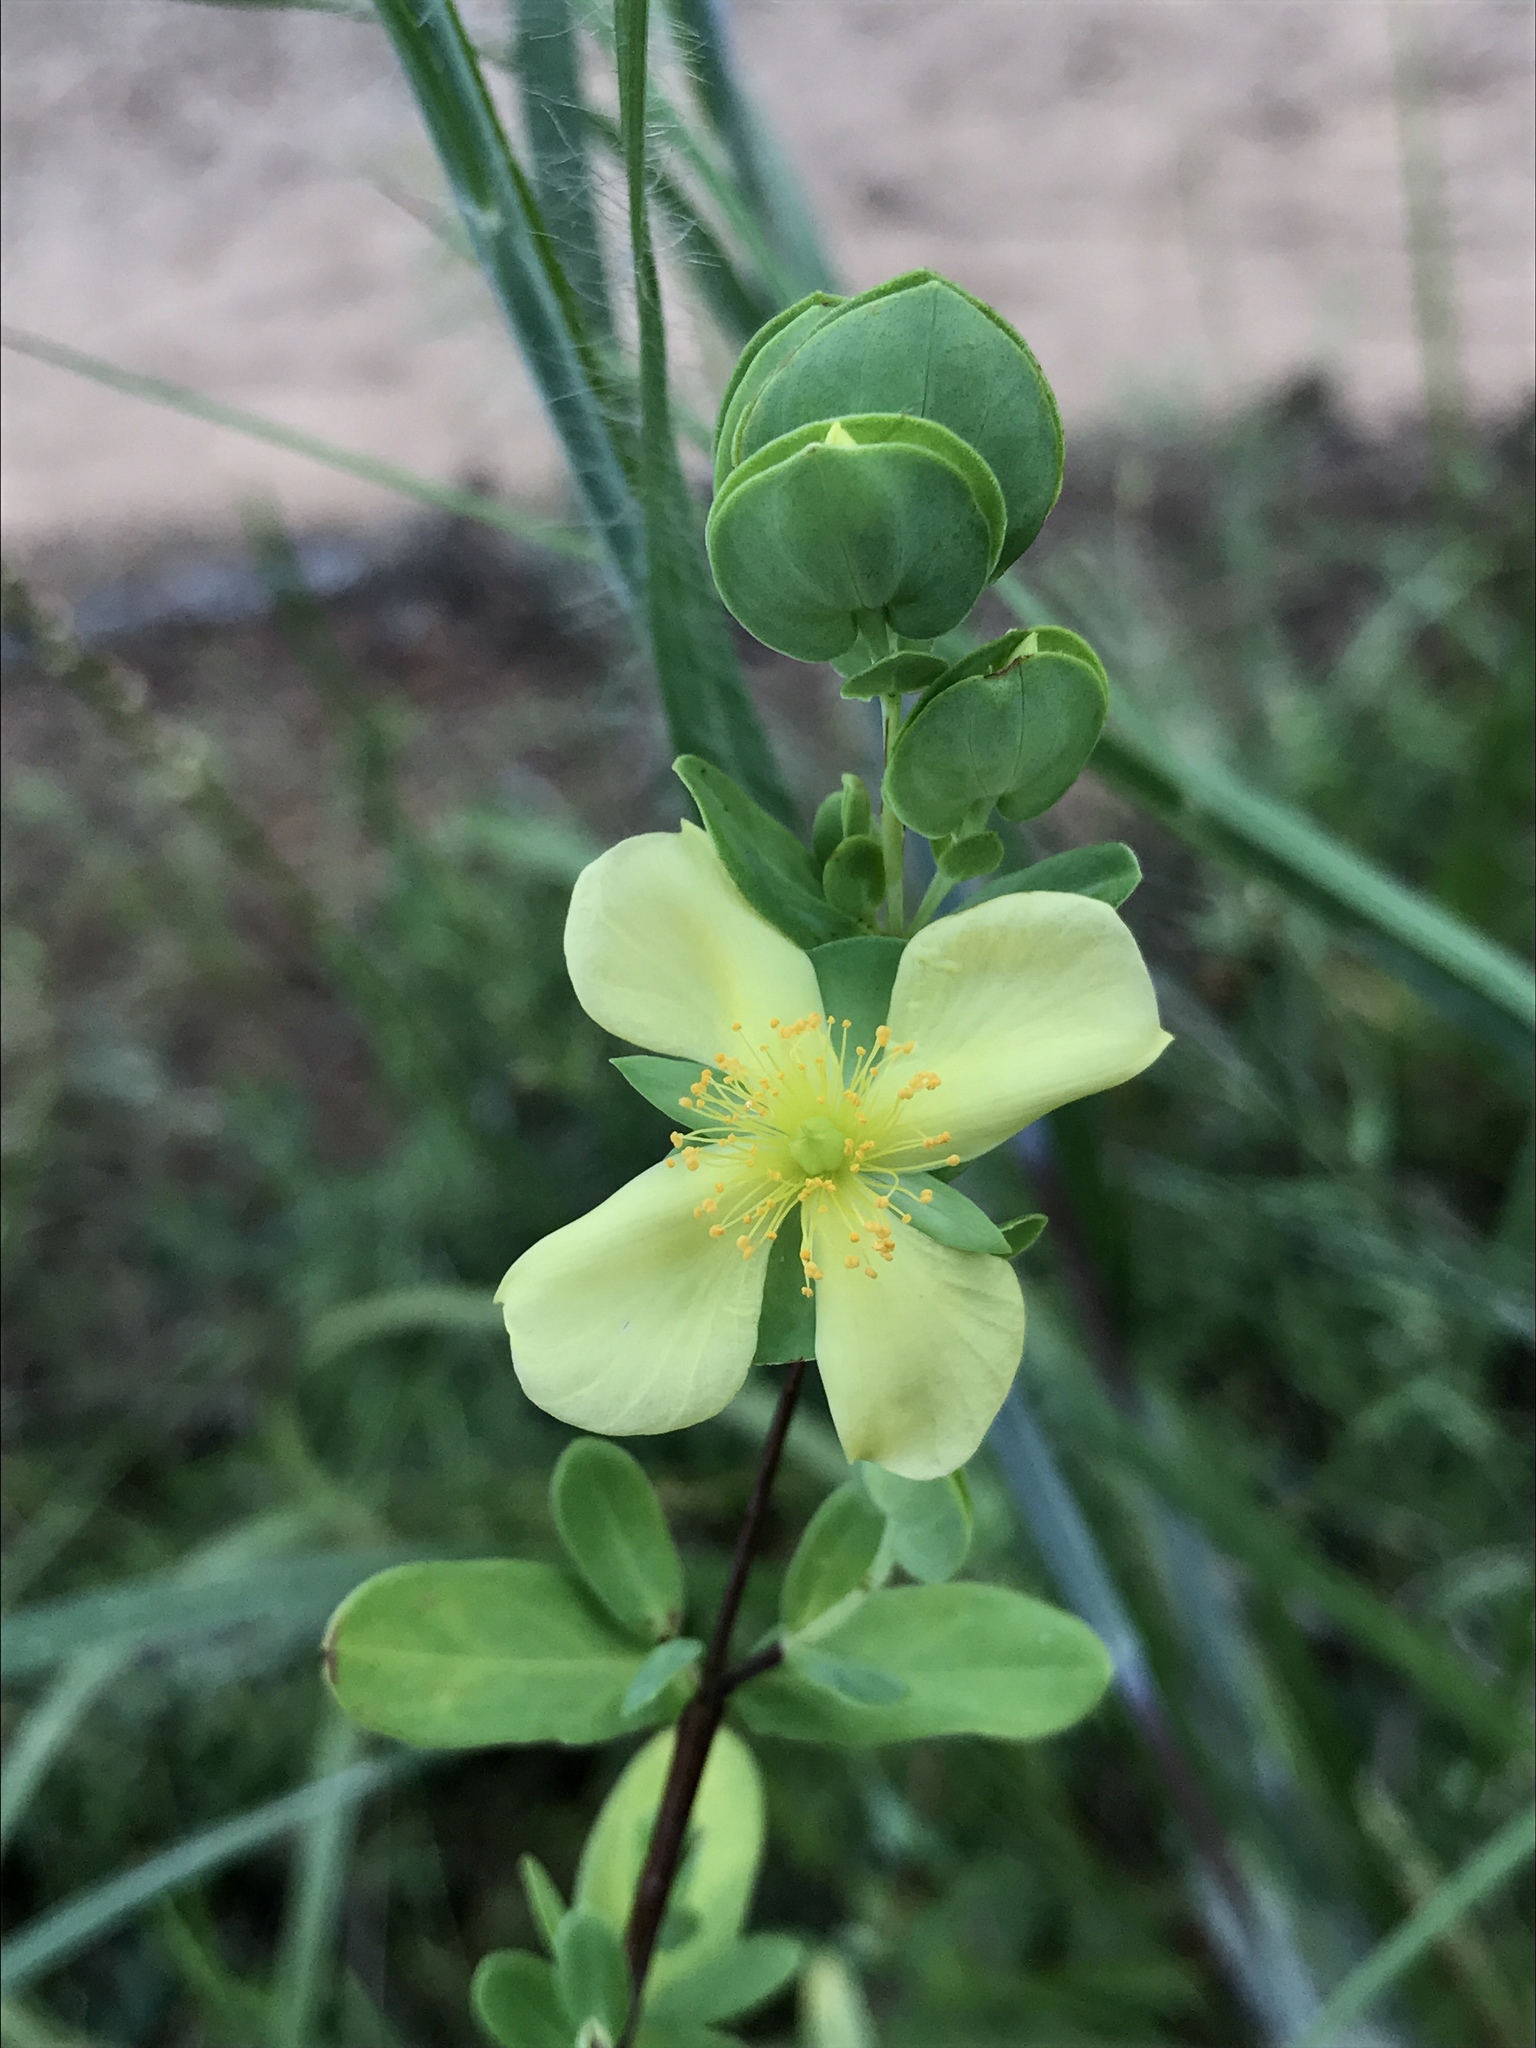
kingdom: Plantae
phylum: Tracheophyta
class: Magnoliopsida
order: Malpighiales
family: Hypericaceae
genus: Hypericum
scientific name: Hypericum crux-andreae
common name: St.-peter's-wort
